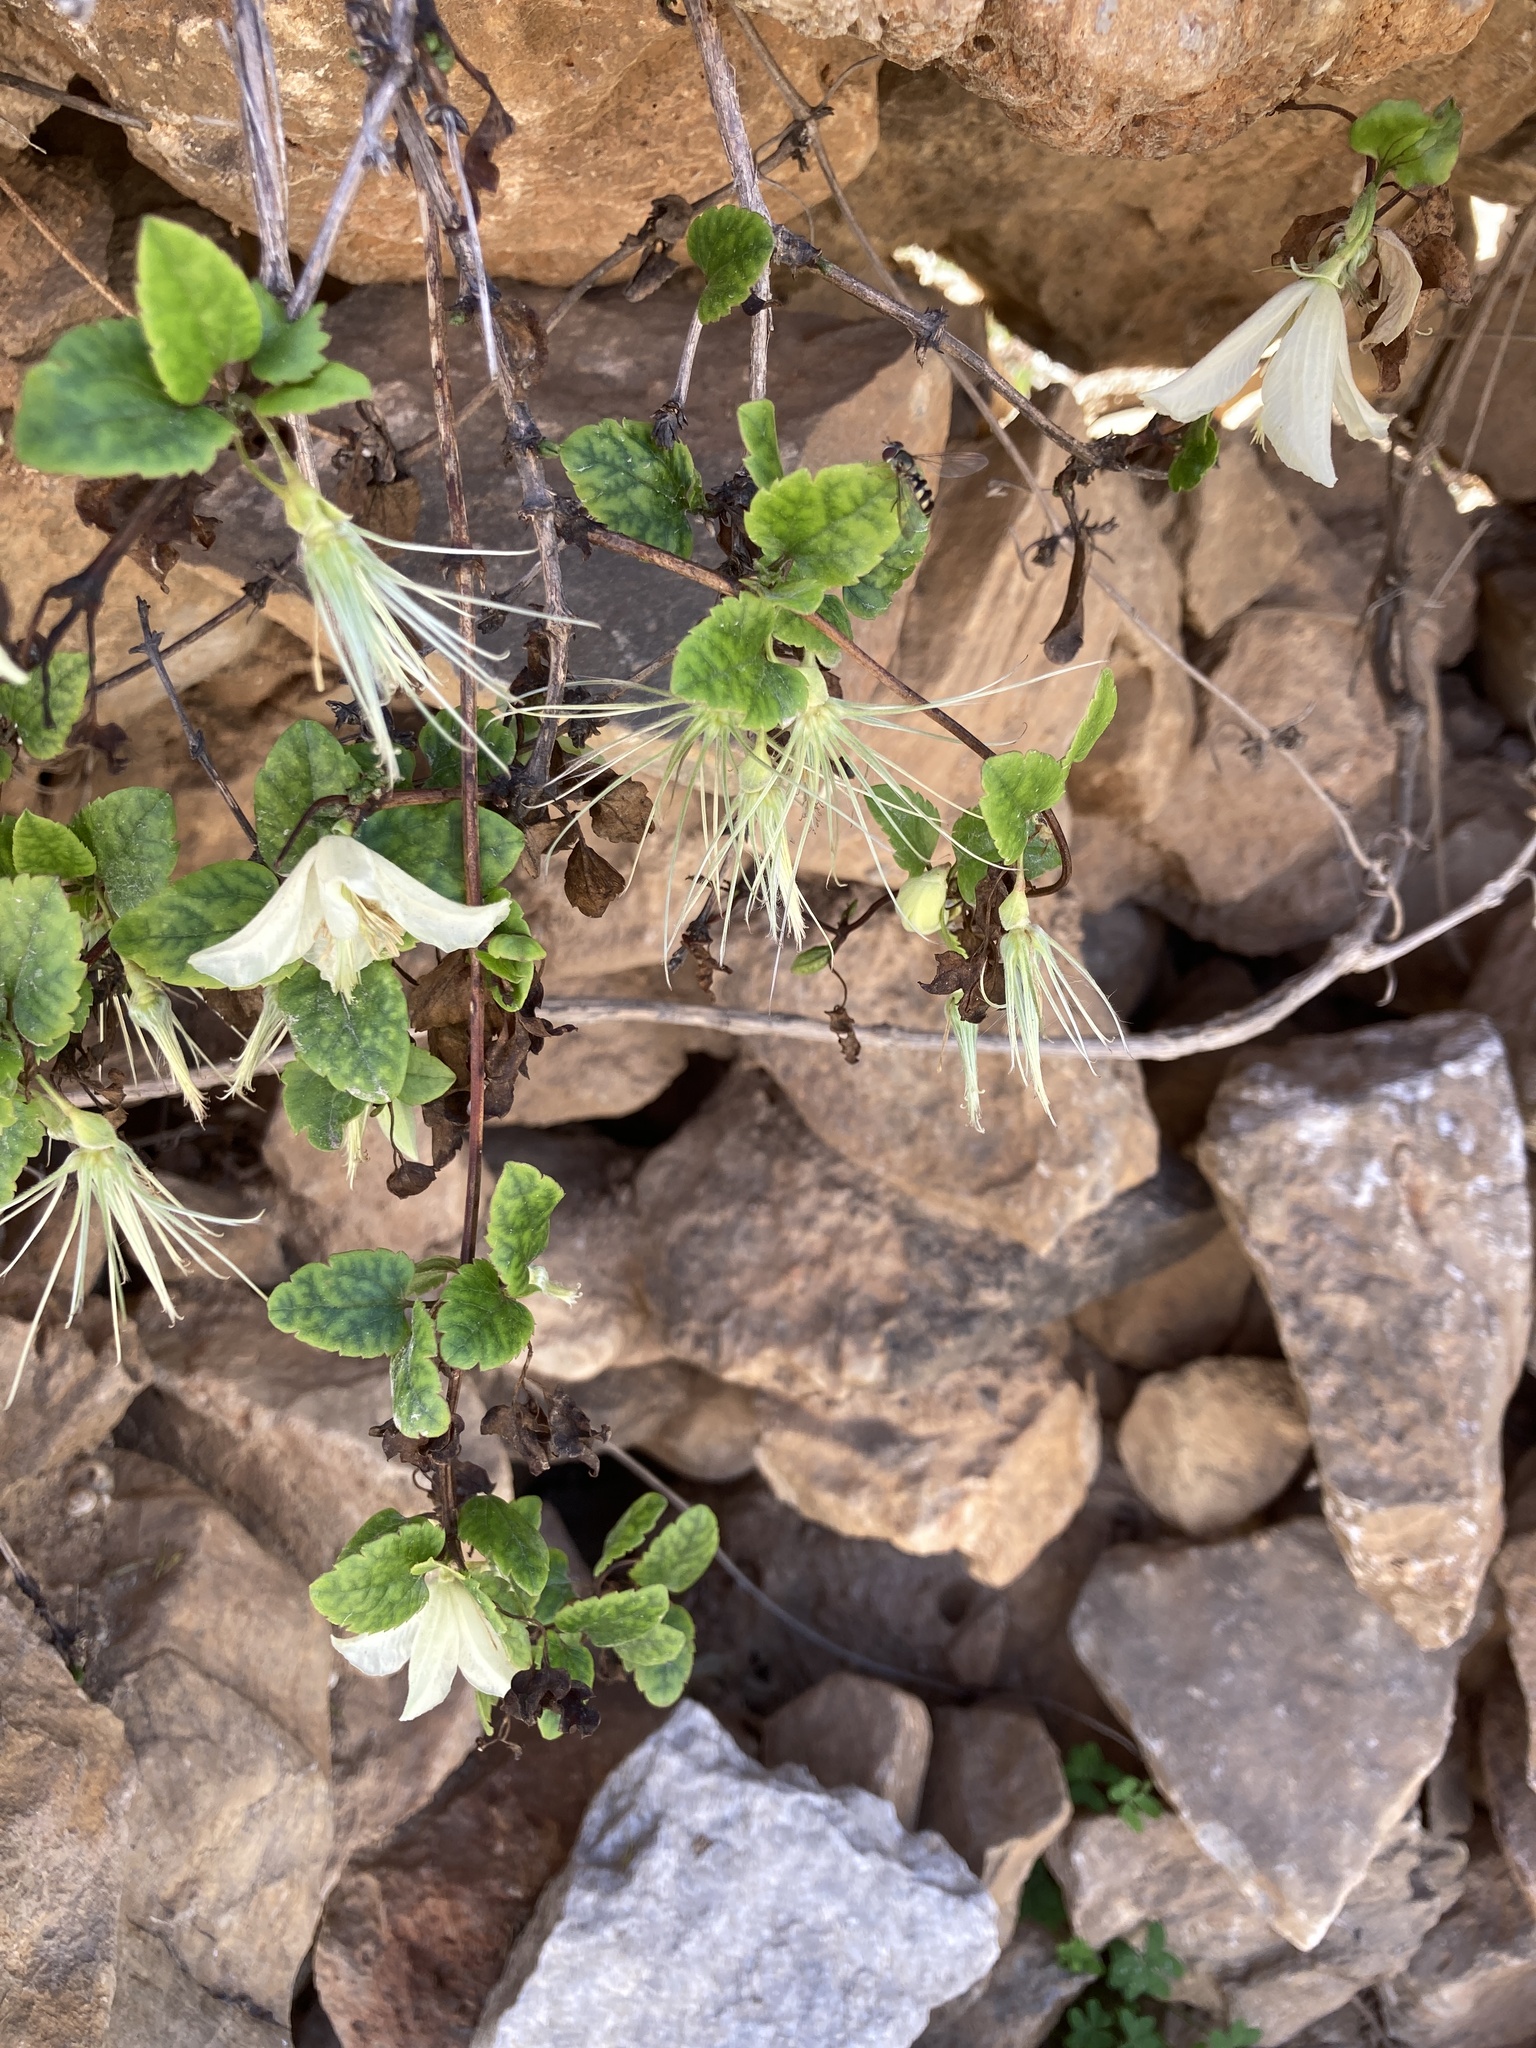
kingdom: Plantae
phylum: Tracheophyta
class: Magnoliopsida
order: Ranunculales
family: Ranunculaceae
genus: Clematis
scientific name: Clematis cirrhosa
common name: Early virgin's-bower
